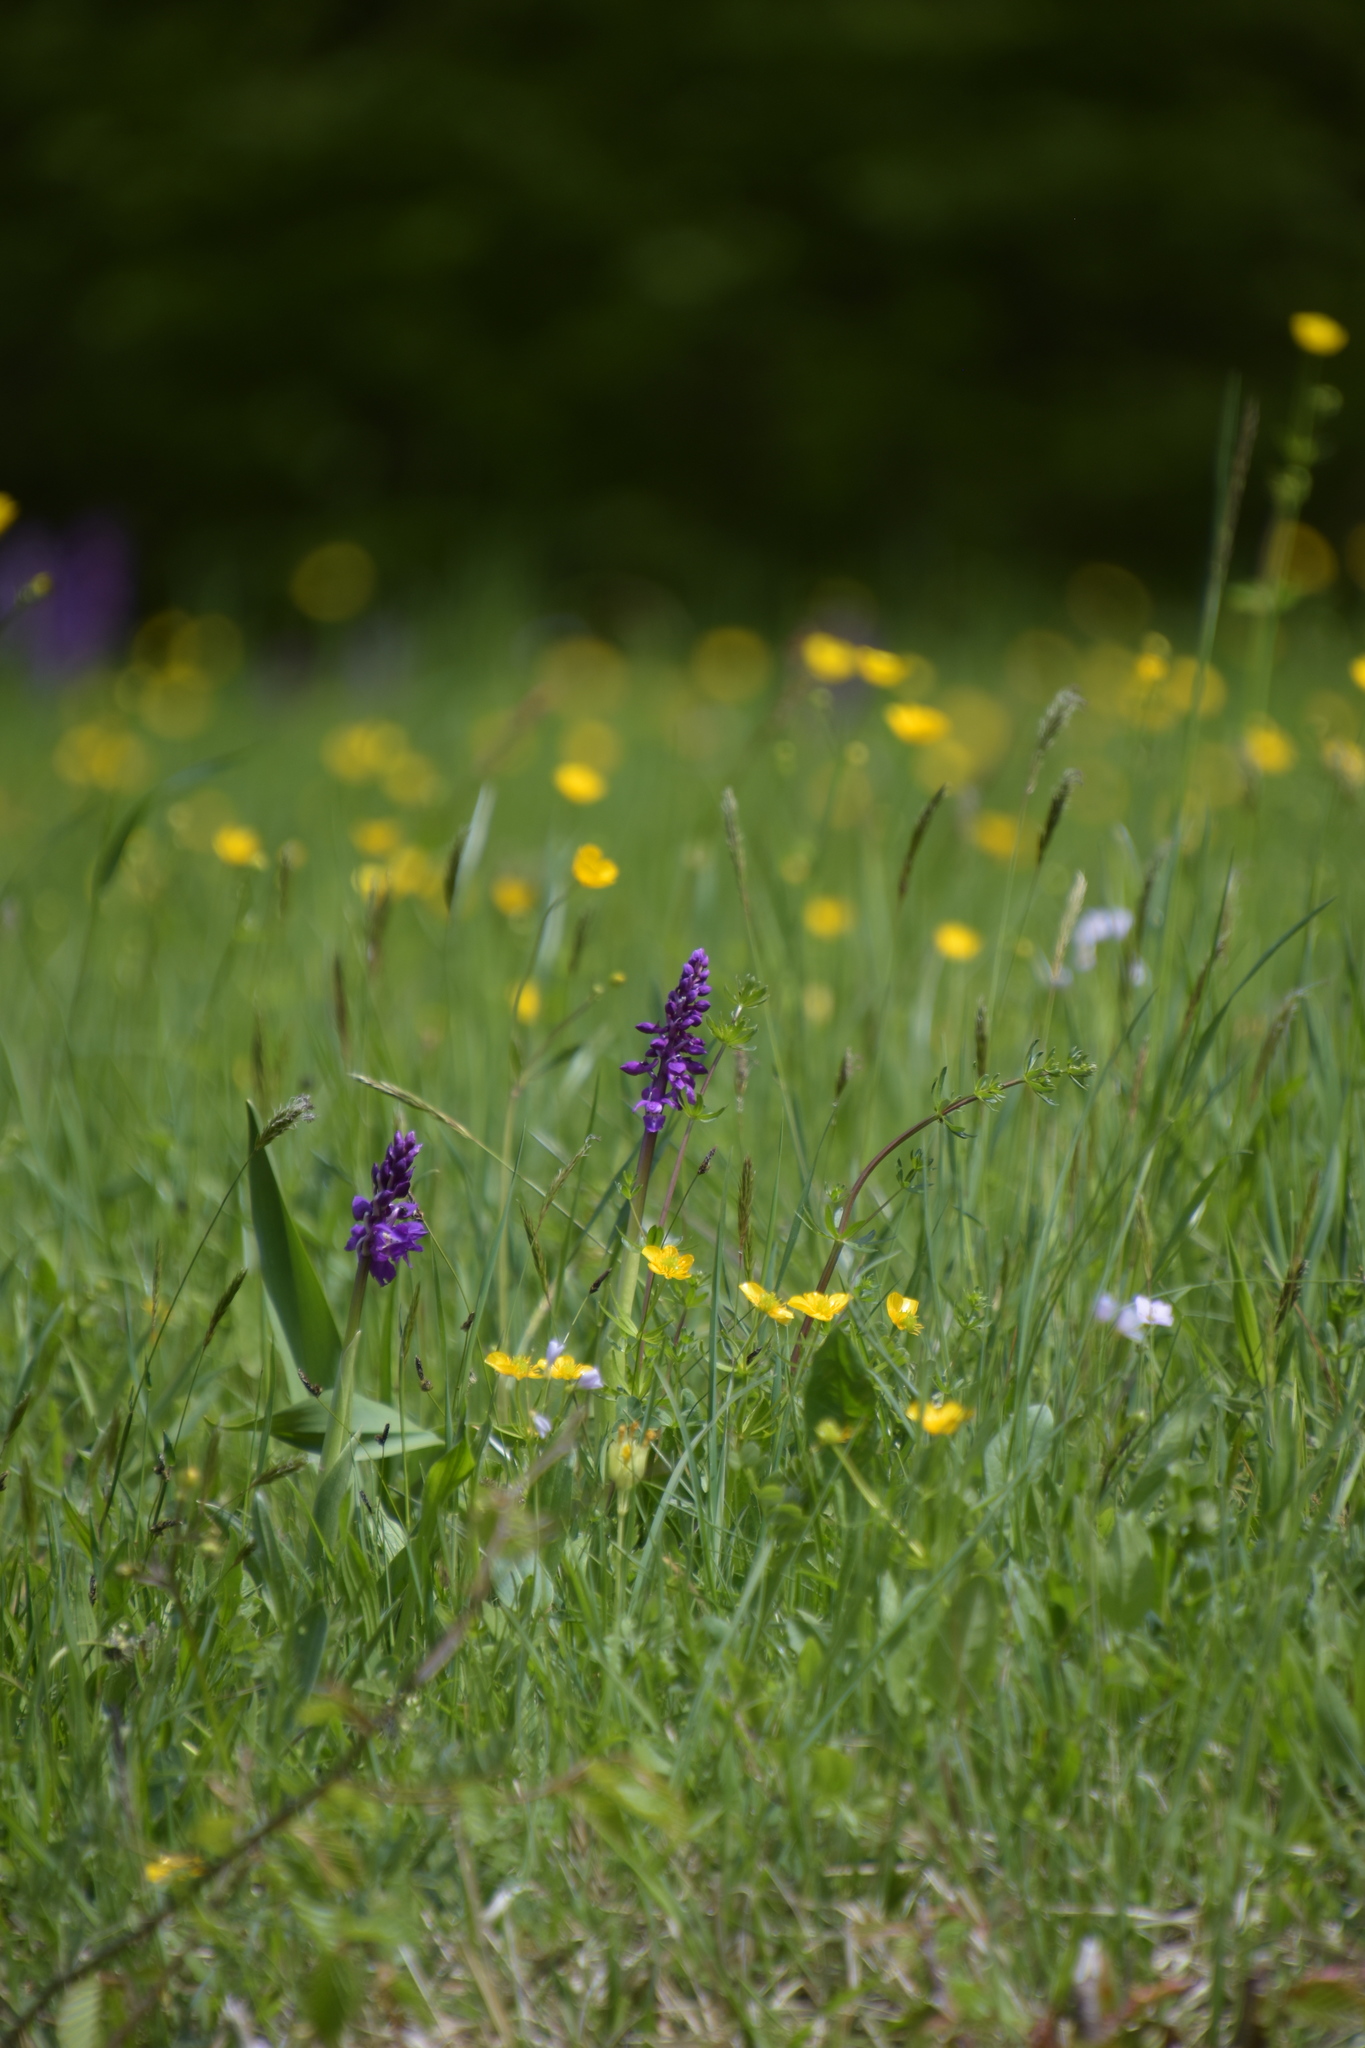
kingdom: Plantae
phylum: Tracheophyta
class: Liliopsida
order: Asparagales
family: Orchidaceae
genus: Orchis
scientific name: Orchis mascula
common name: Early-purple orchid
